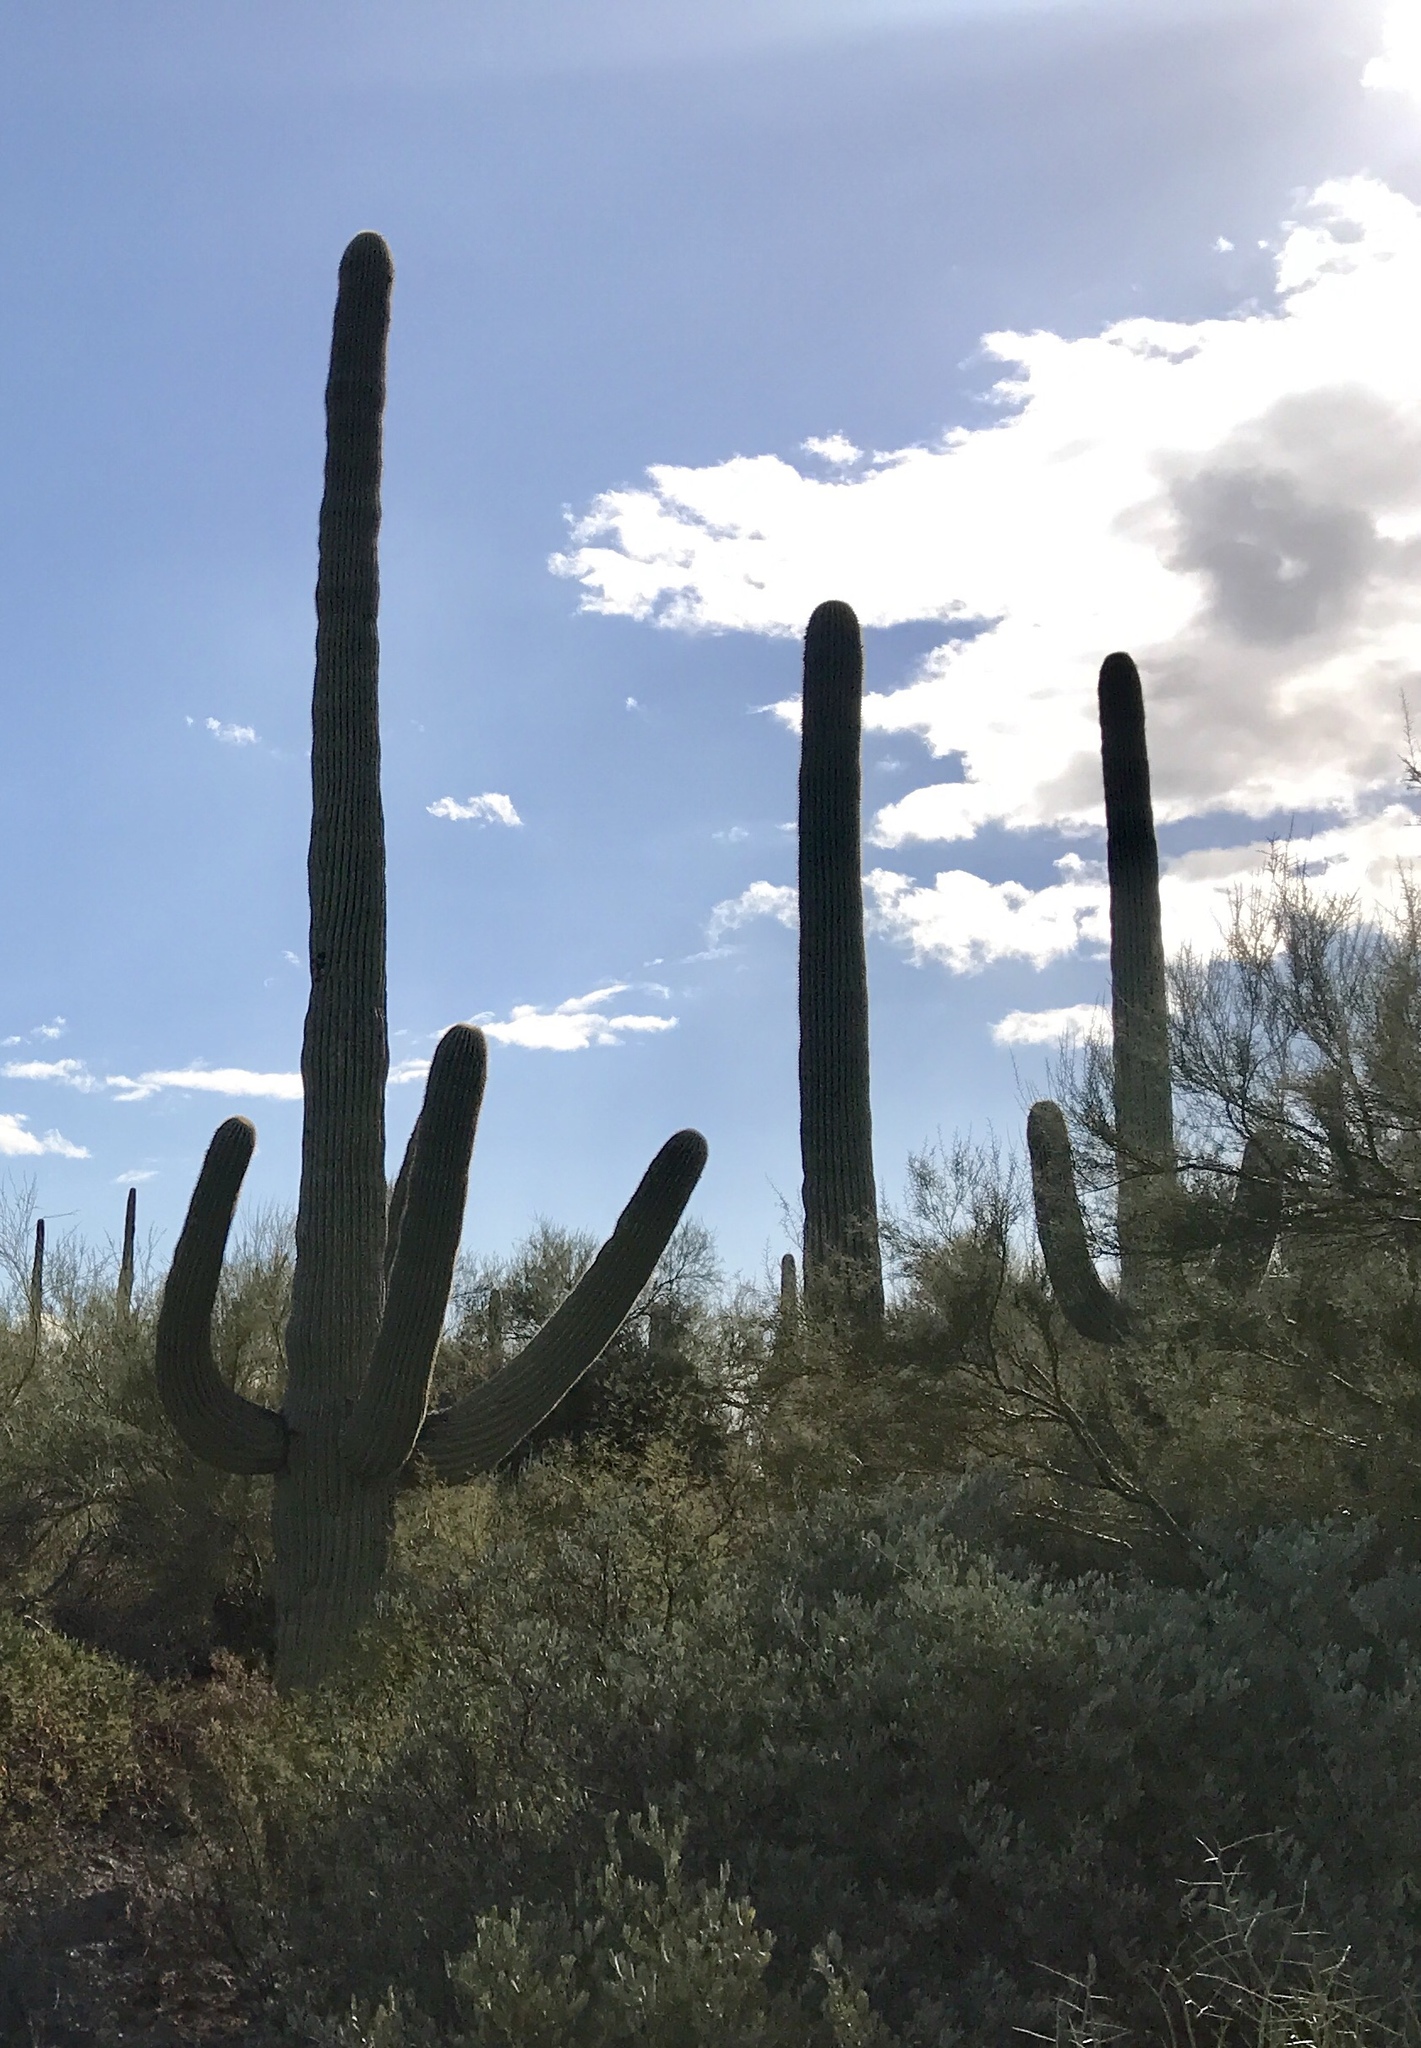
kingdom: Plantae
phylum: Tracheophyta
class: Magnoliopsida
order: Caryophyllales
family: Cactaceae
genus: Carnegiea
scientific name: Carnegiea gigantea
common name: Saguaro
